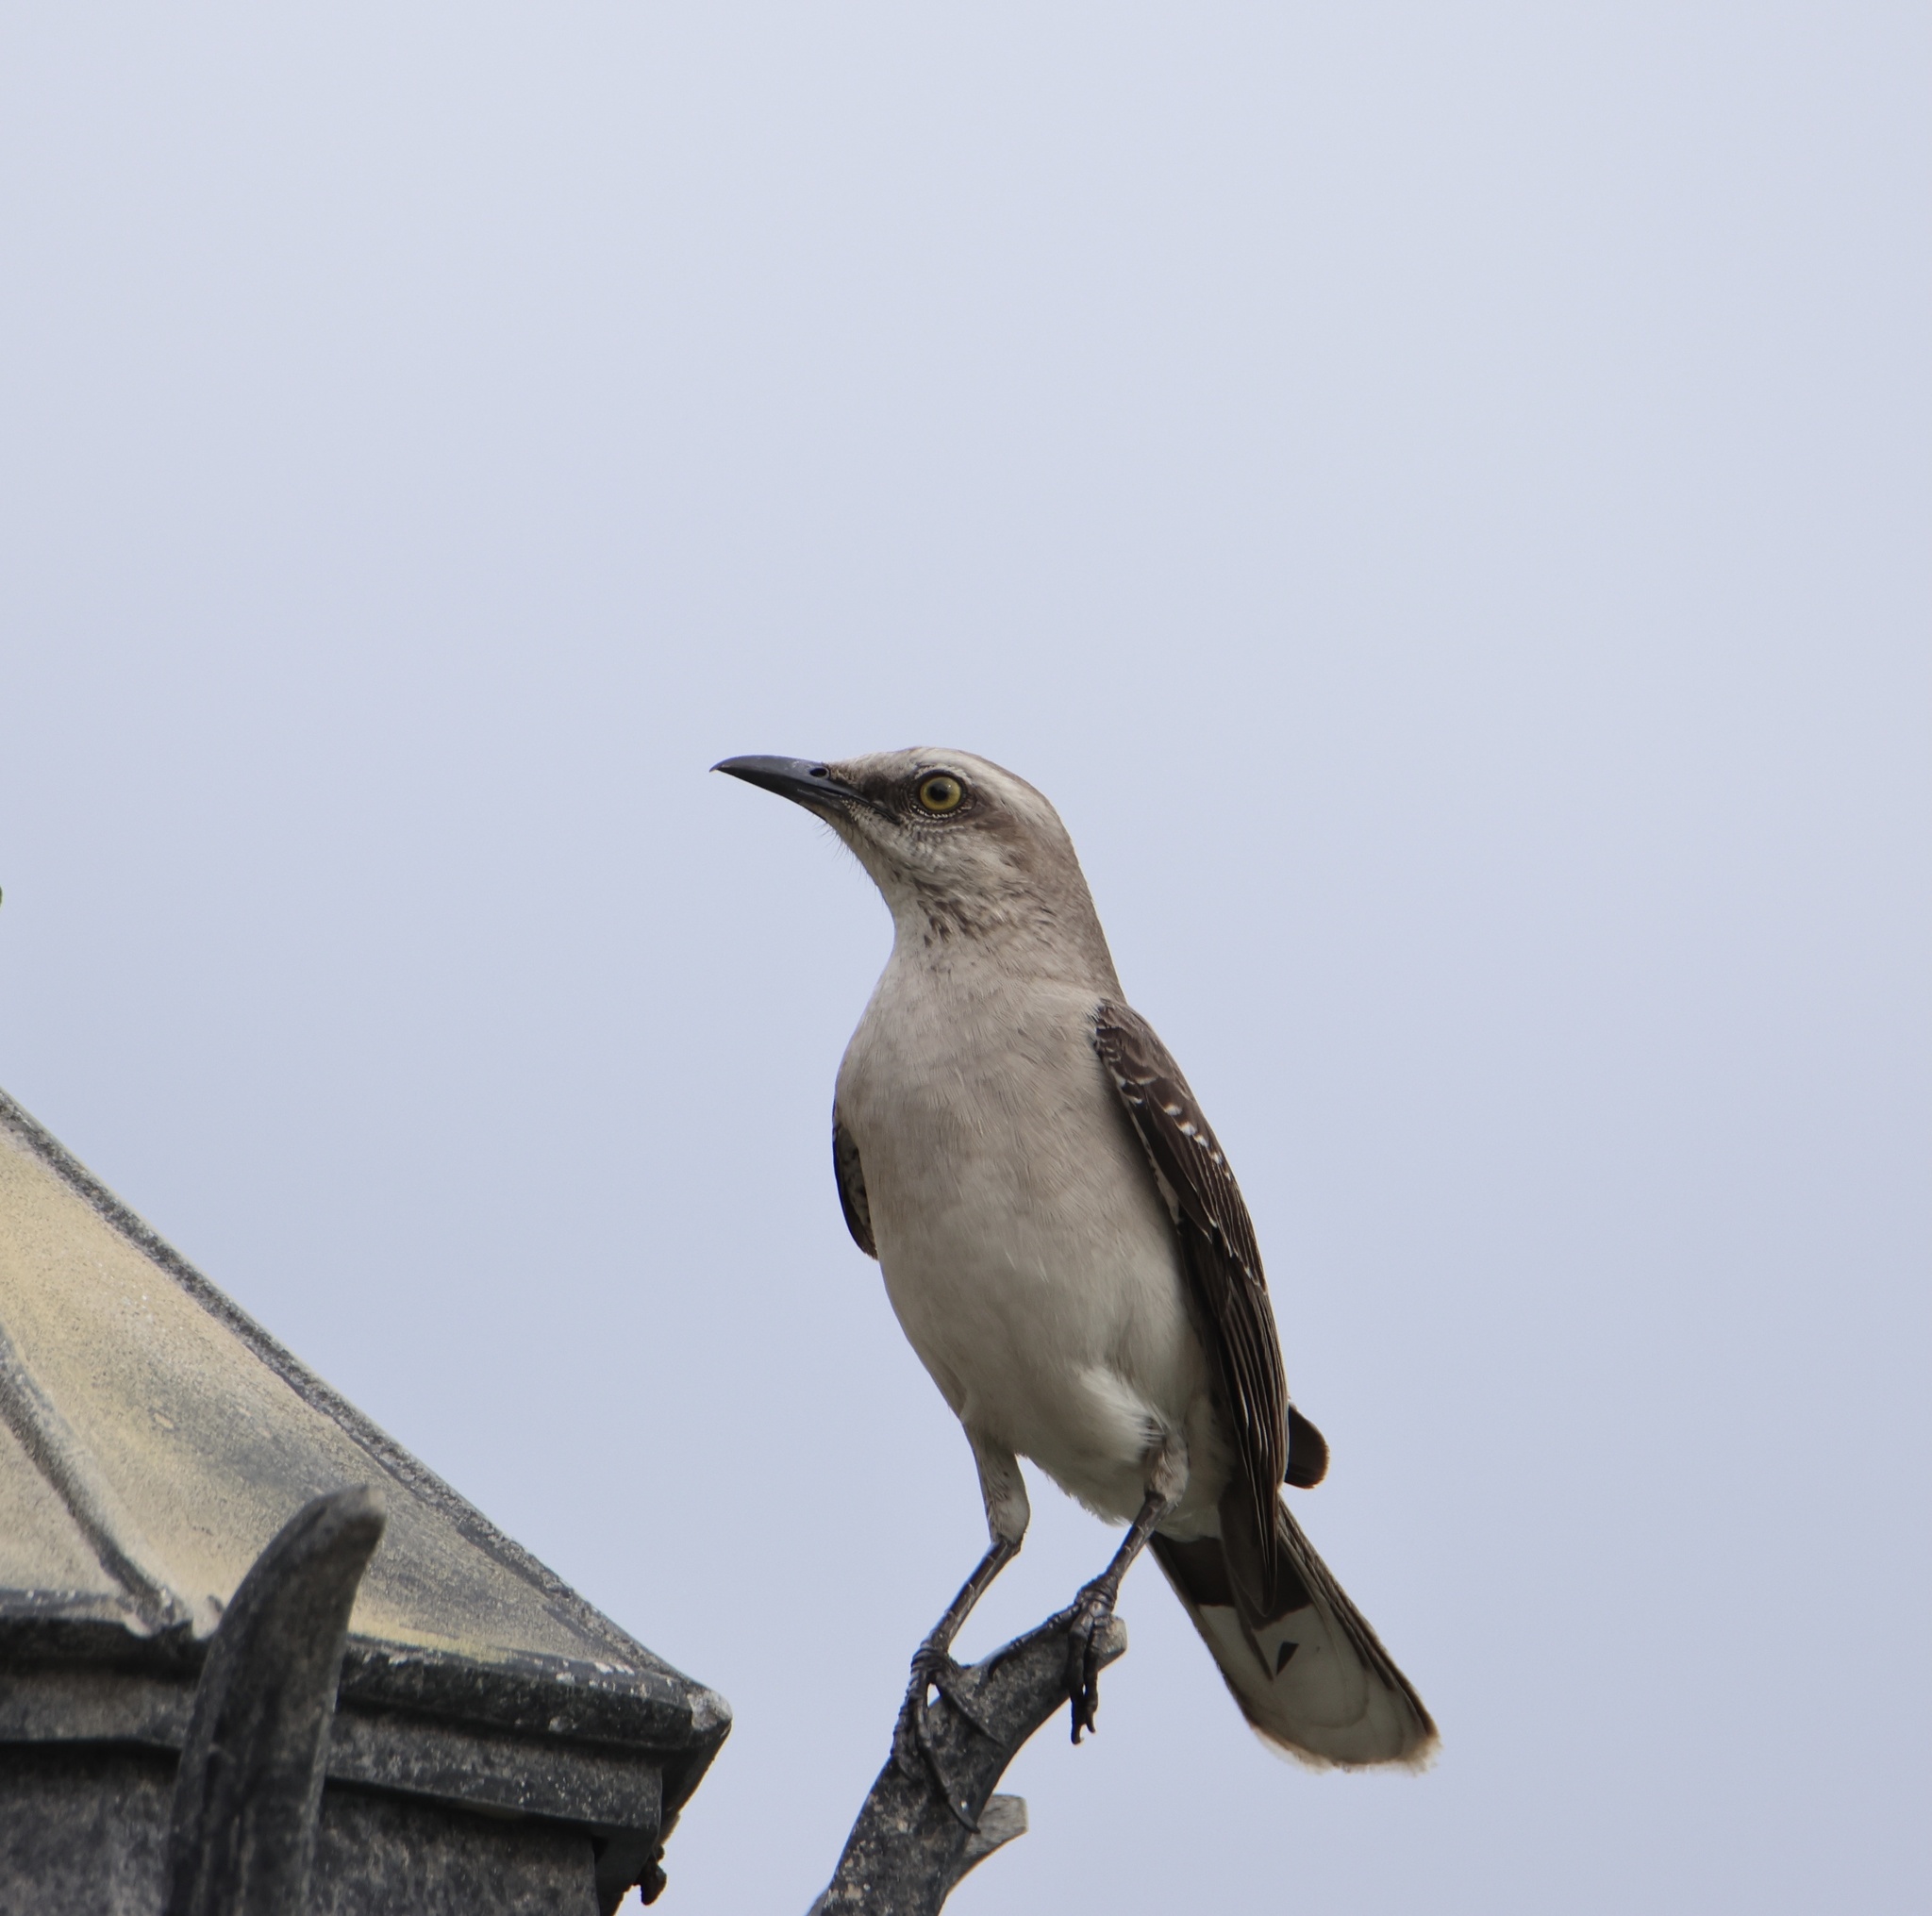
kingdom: Animalia
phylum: Chordata
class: Aves
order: Passeriformes
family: Mimidae
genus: Mimus
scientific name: Mimus gilvus
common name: Tropical mockingbird
